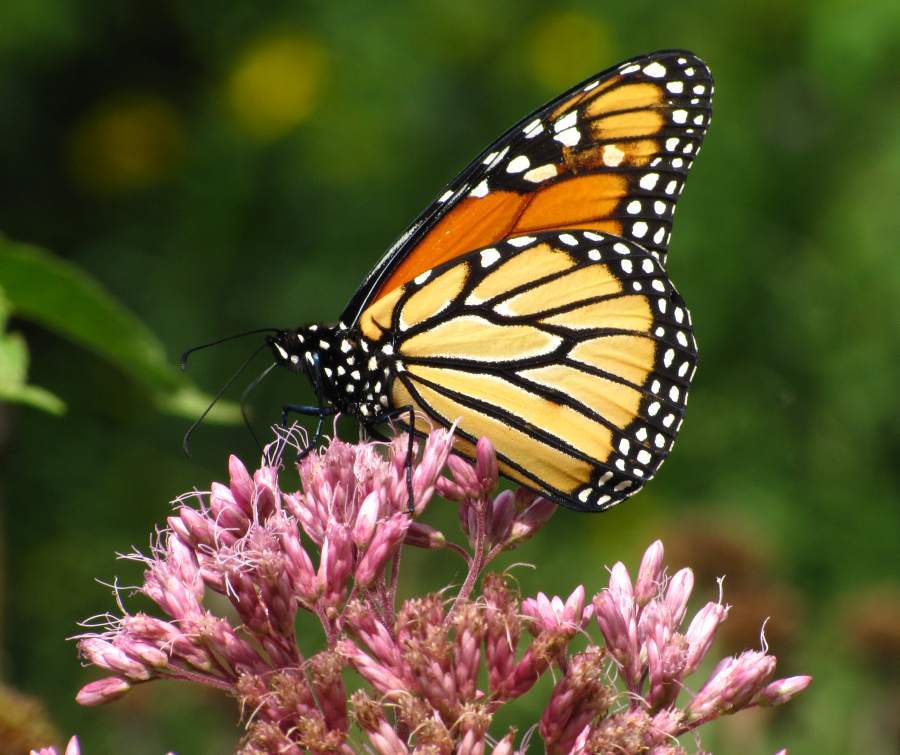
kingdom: Animalia
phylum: Arthropoda
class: Insecta
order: Lepidoptera
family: Nymphalidae
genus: Danaus
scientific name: Danaus plexippus
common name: Monarch
